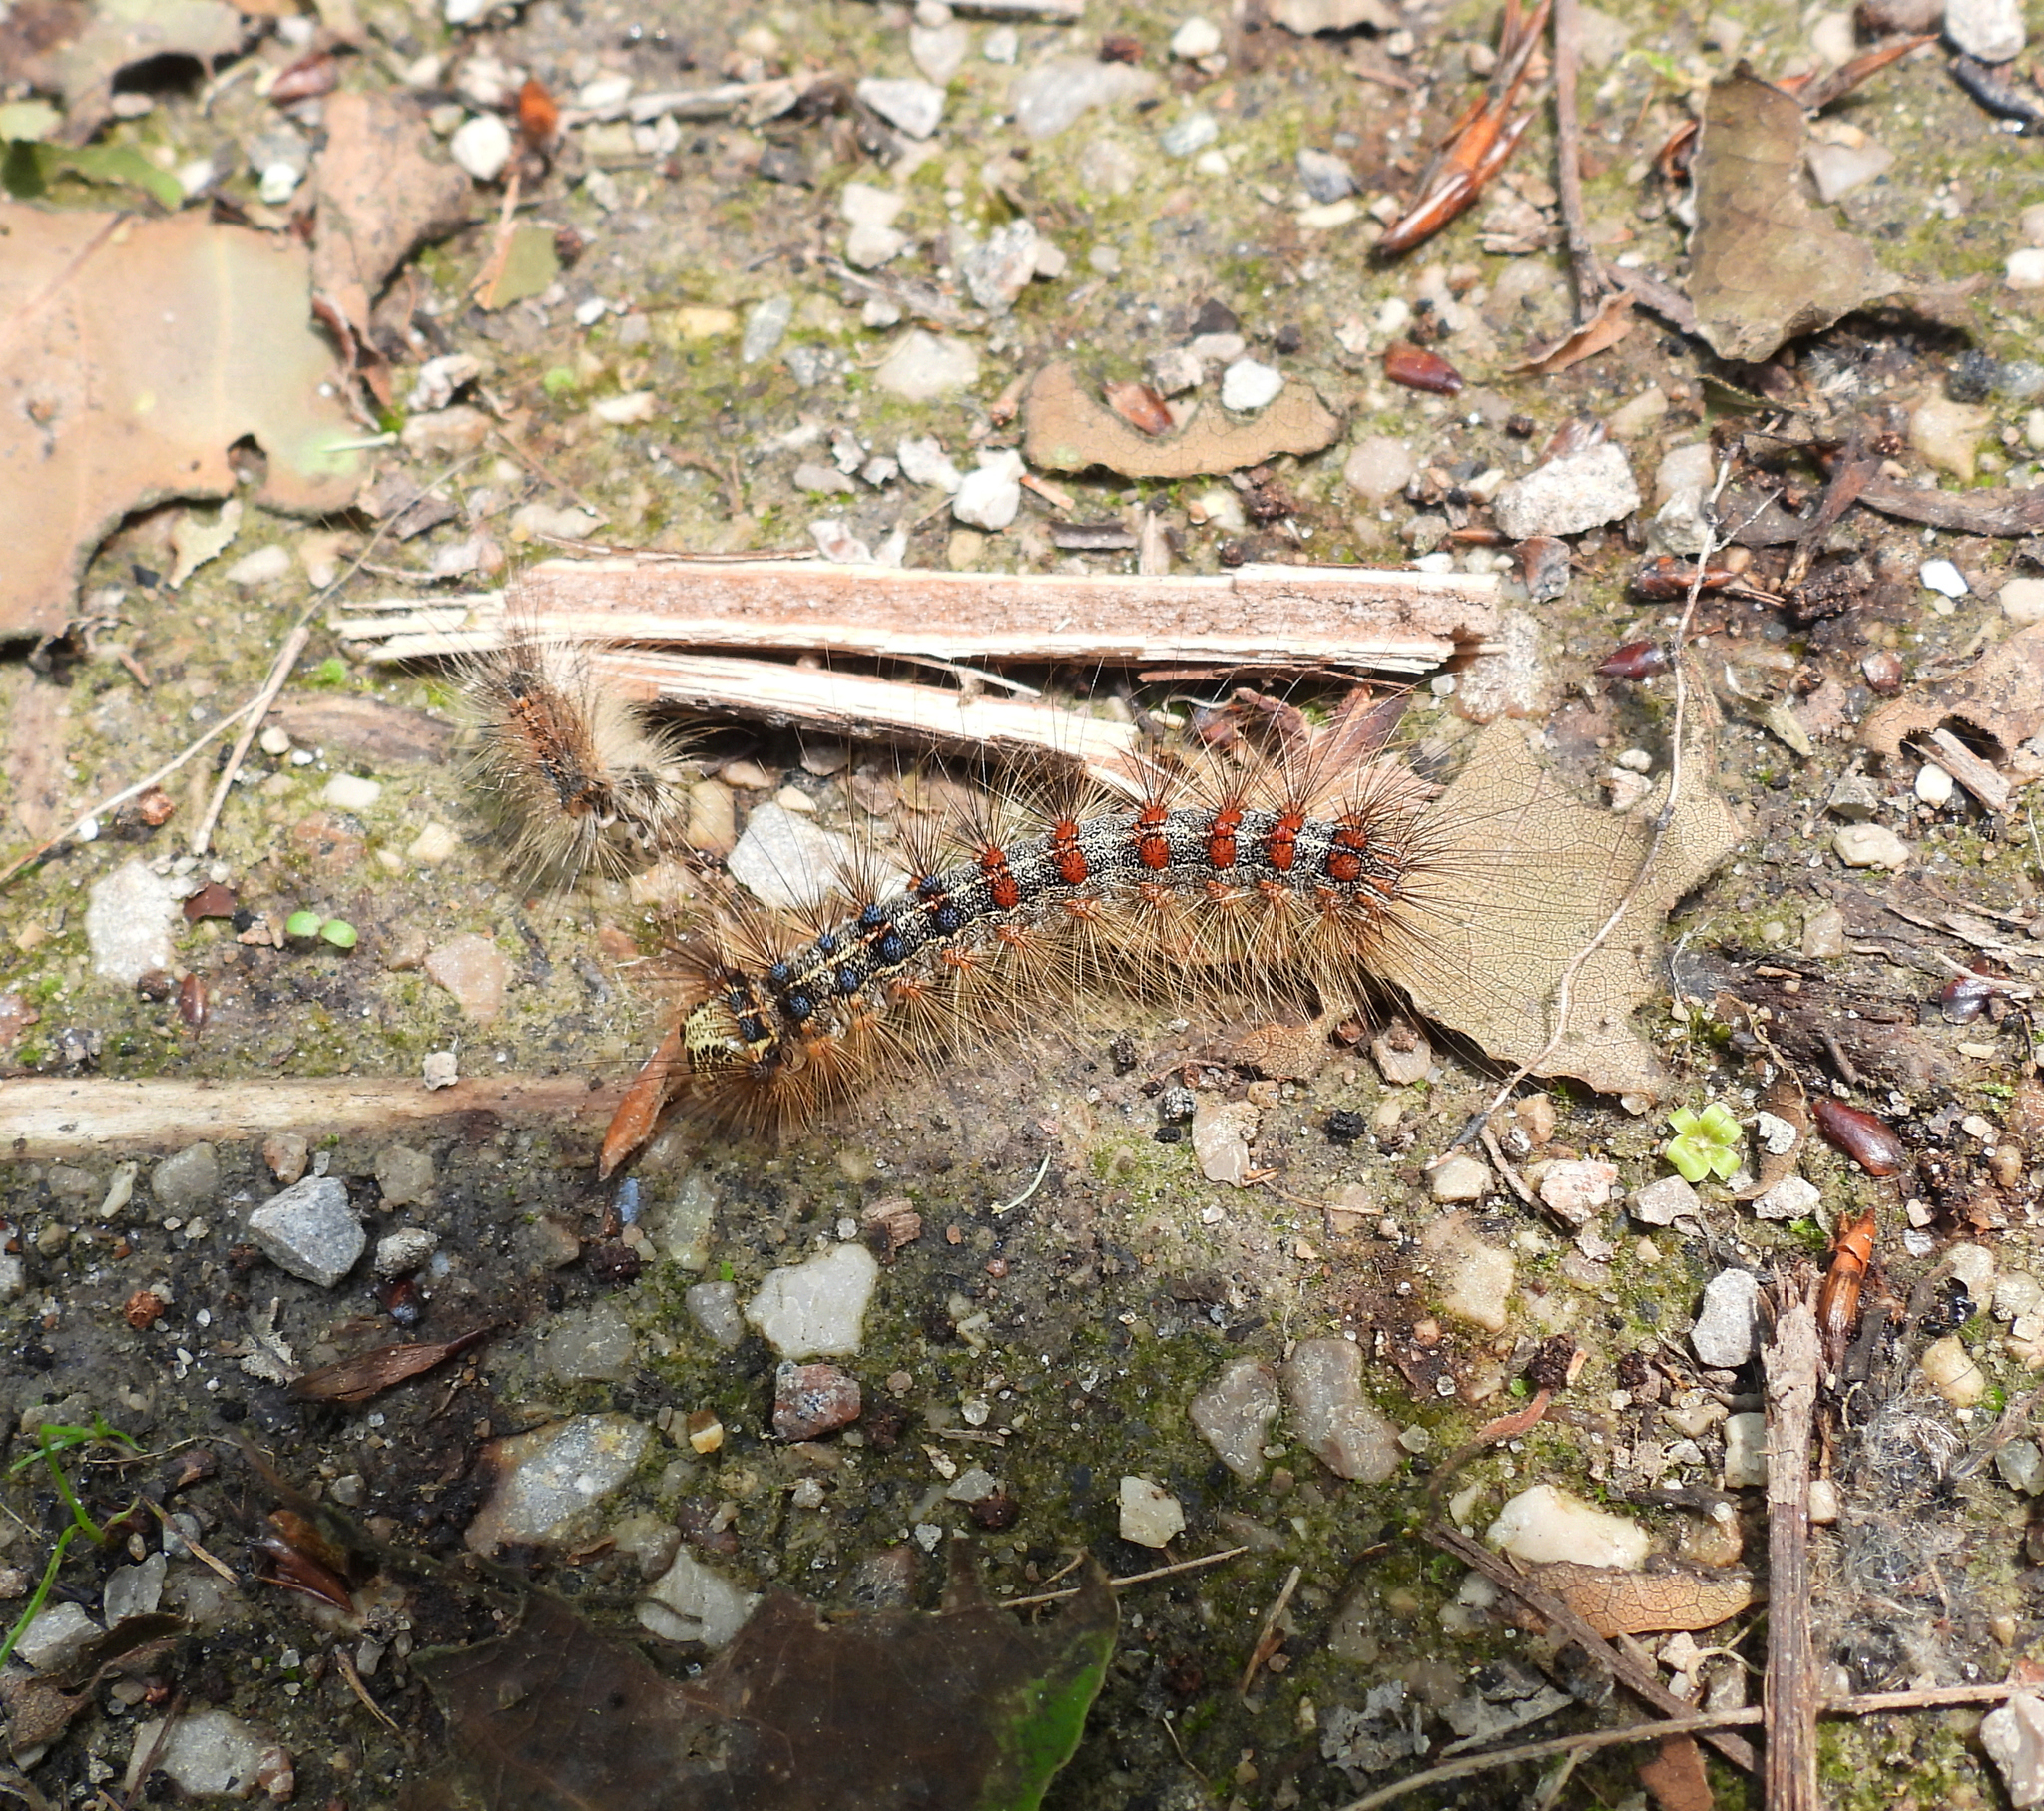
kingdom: Animalia
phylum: Arthropoda
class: Insecta
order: Lepidoptera
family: Erebidae
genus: Lymantria
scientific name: Lymantria dispar
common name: Gypsy moth
